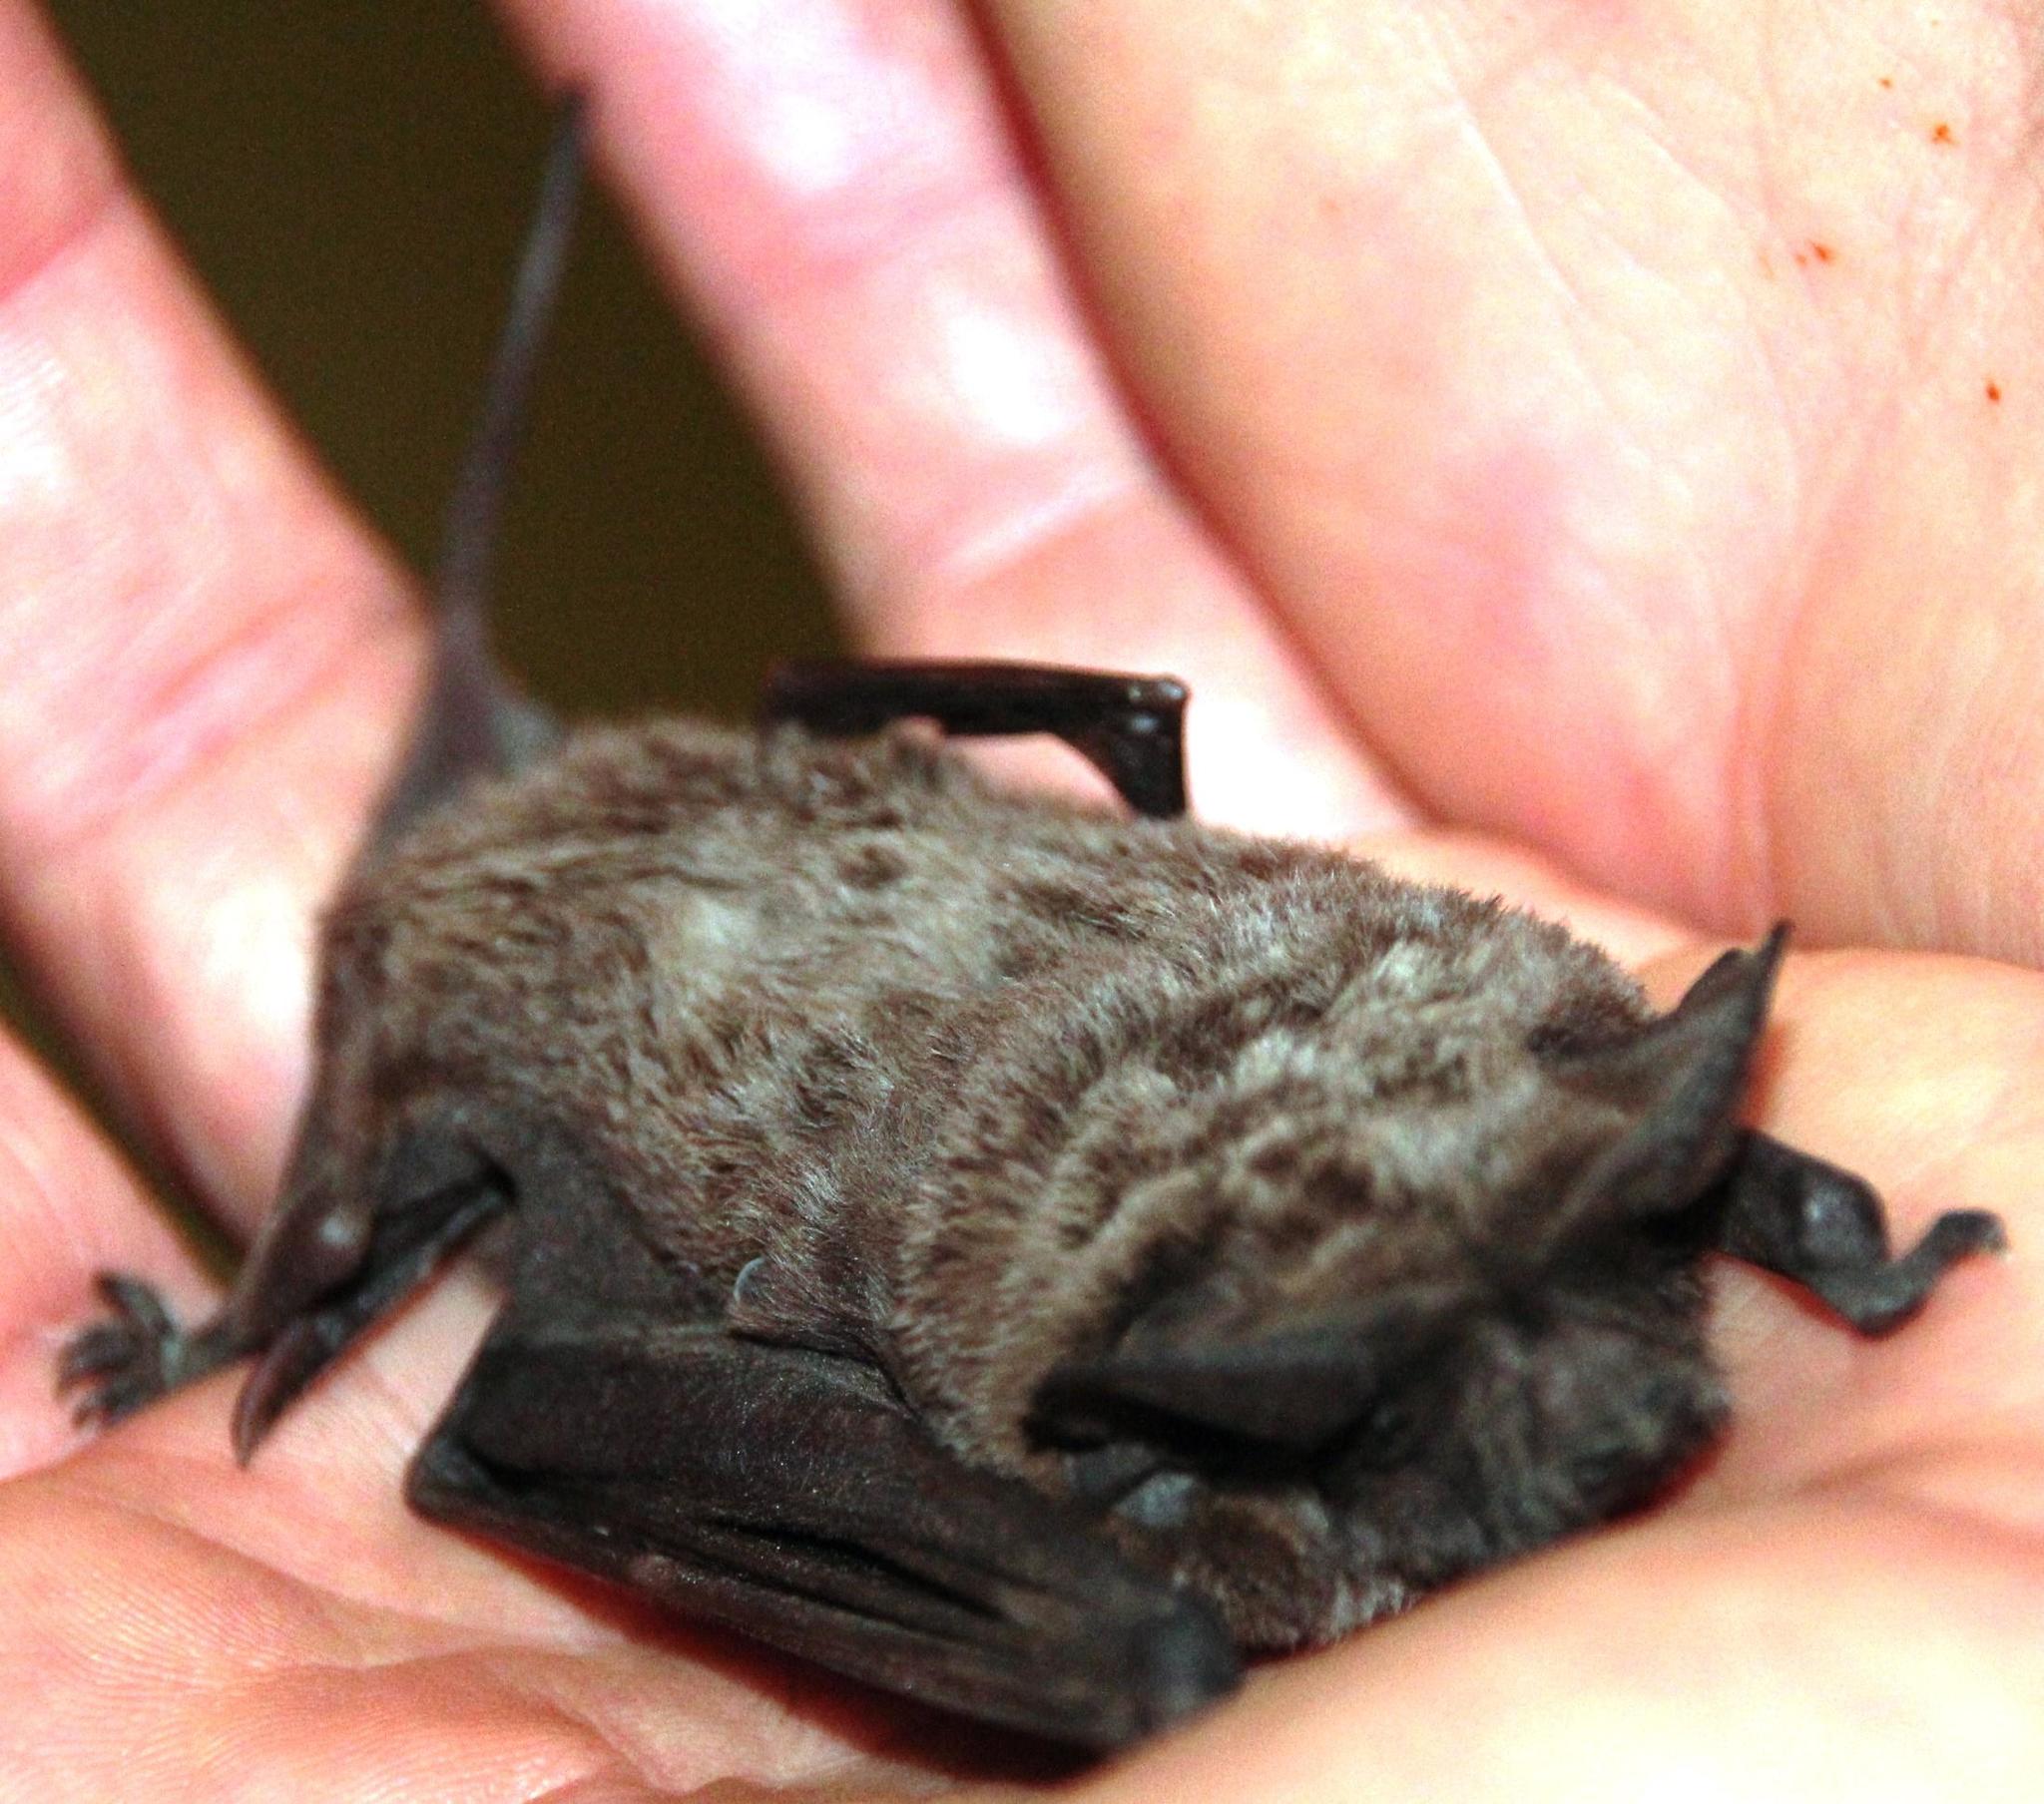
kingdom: Animalia
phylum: Chordata
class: Mammalia
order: Chiroptera
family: Molossidae
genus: Tadarida
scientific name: Tadarida aegyptiaca
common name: Egyptian free-tailed bat
